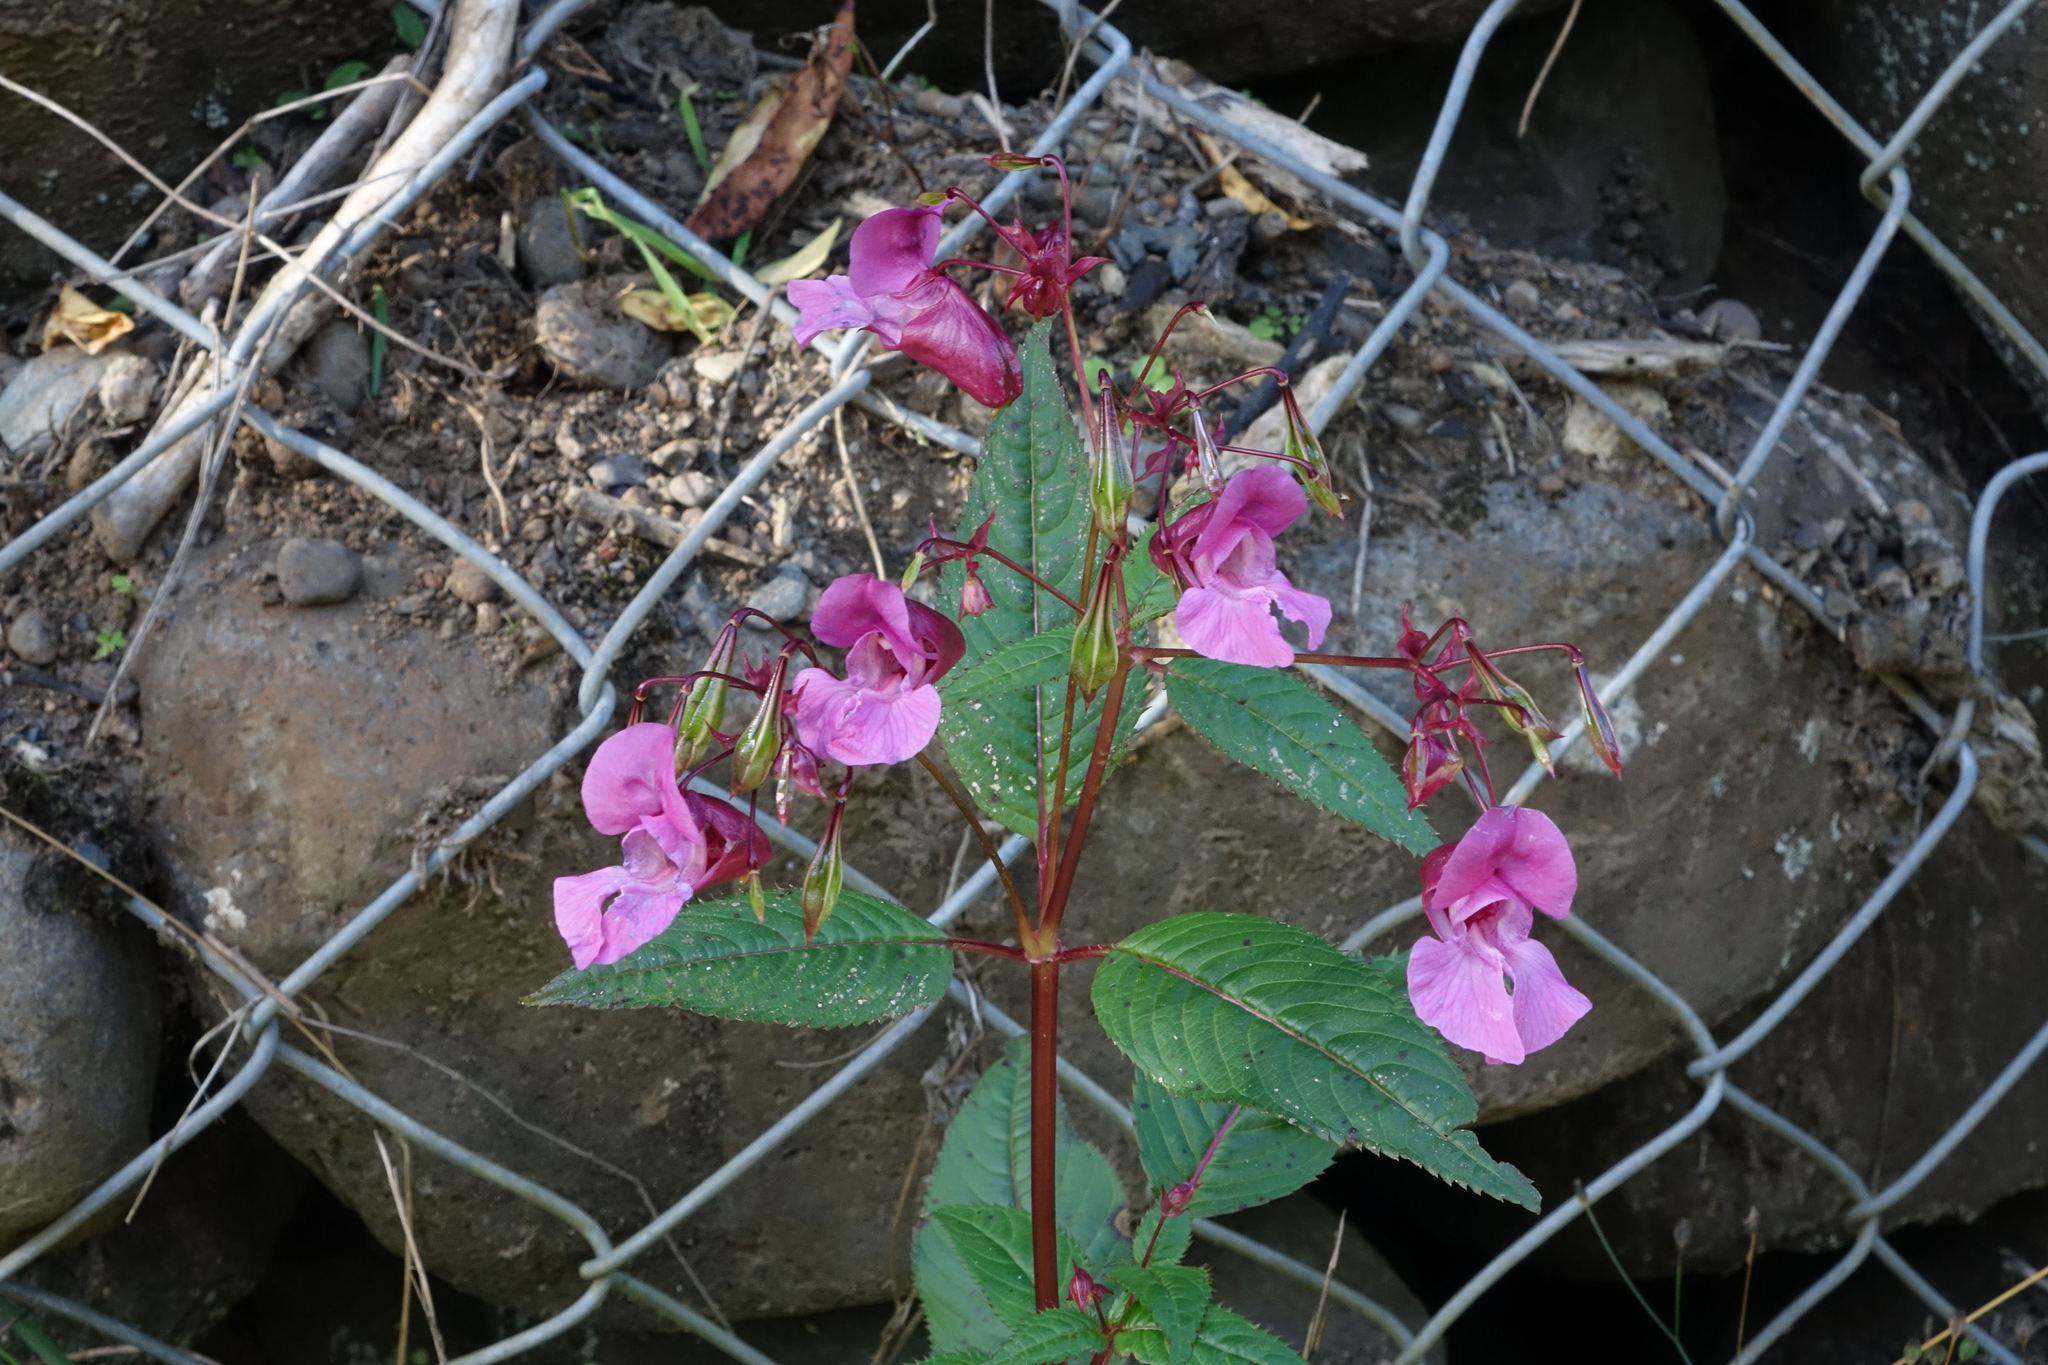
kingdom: Plantae
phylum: Tracheophyta
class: Magnoliopsida
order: Ericales
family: Balsaminaceae
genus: Impatiens
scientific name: Impatiens glandulifera
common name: Himalayan balsam
